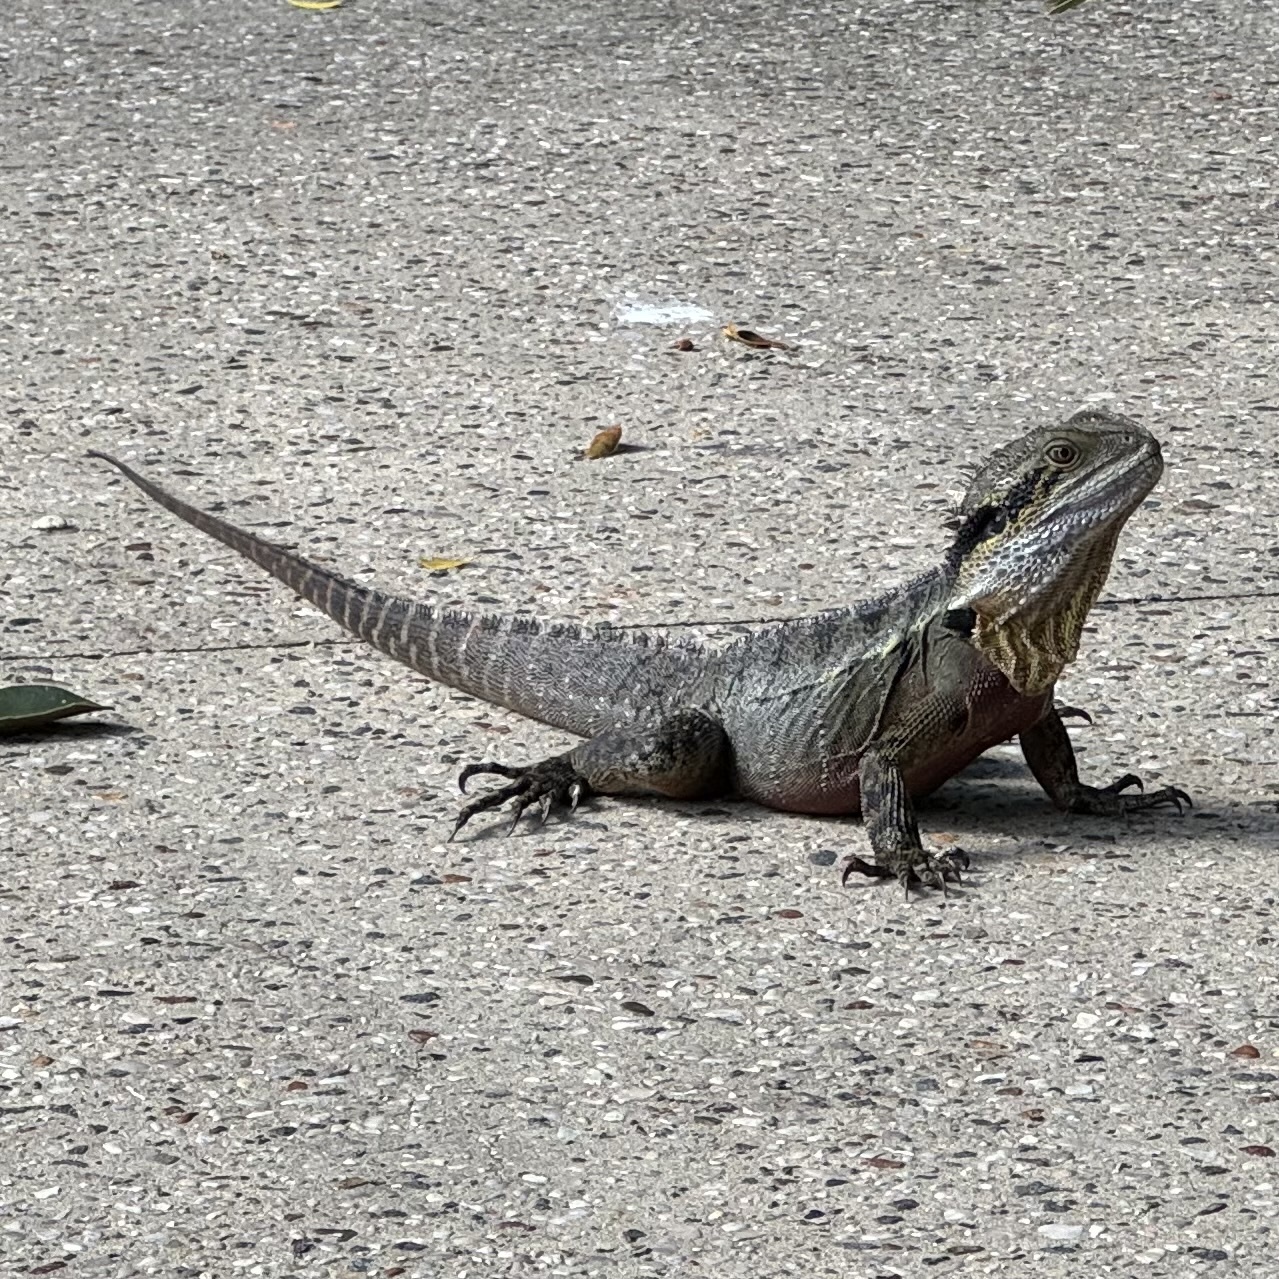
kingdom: Animalia
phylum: Chordata
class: Squamata
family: Agamidae
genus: Intellagama
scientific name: Intellagama lesueurii
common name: Eastern water dragon
